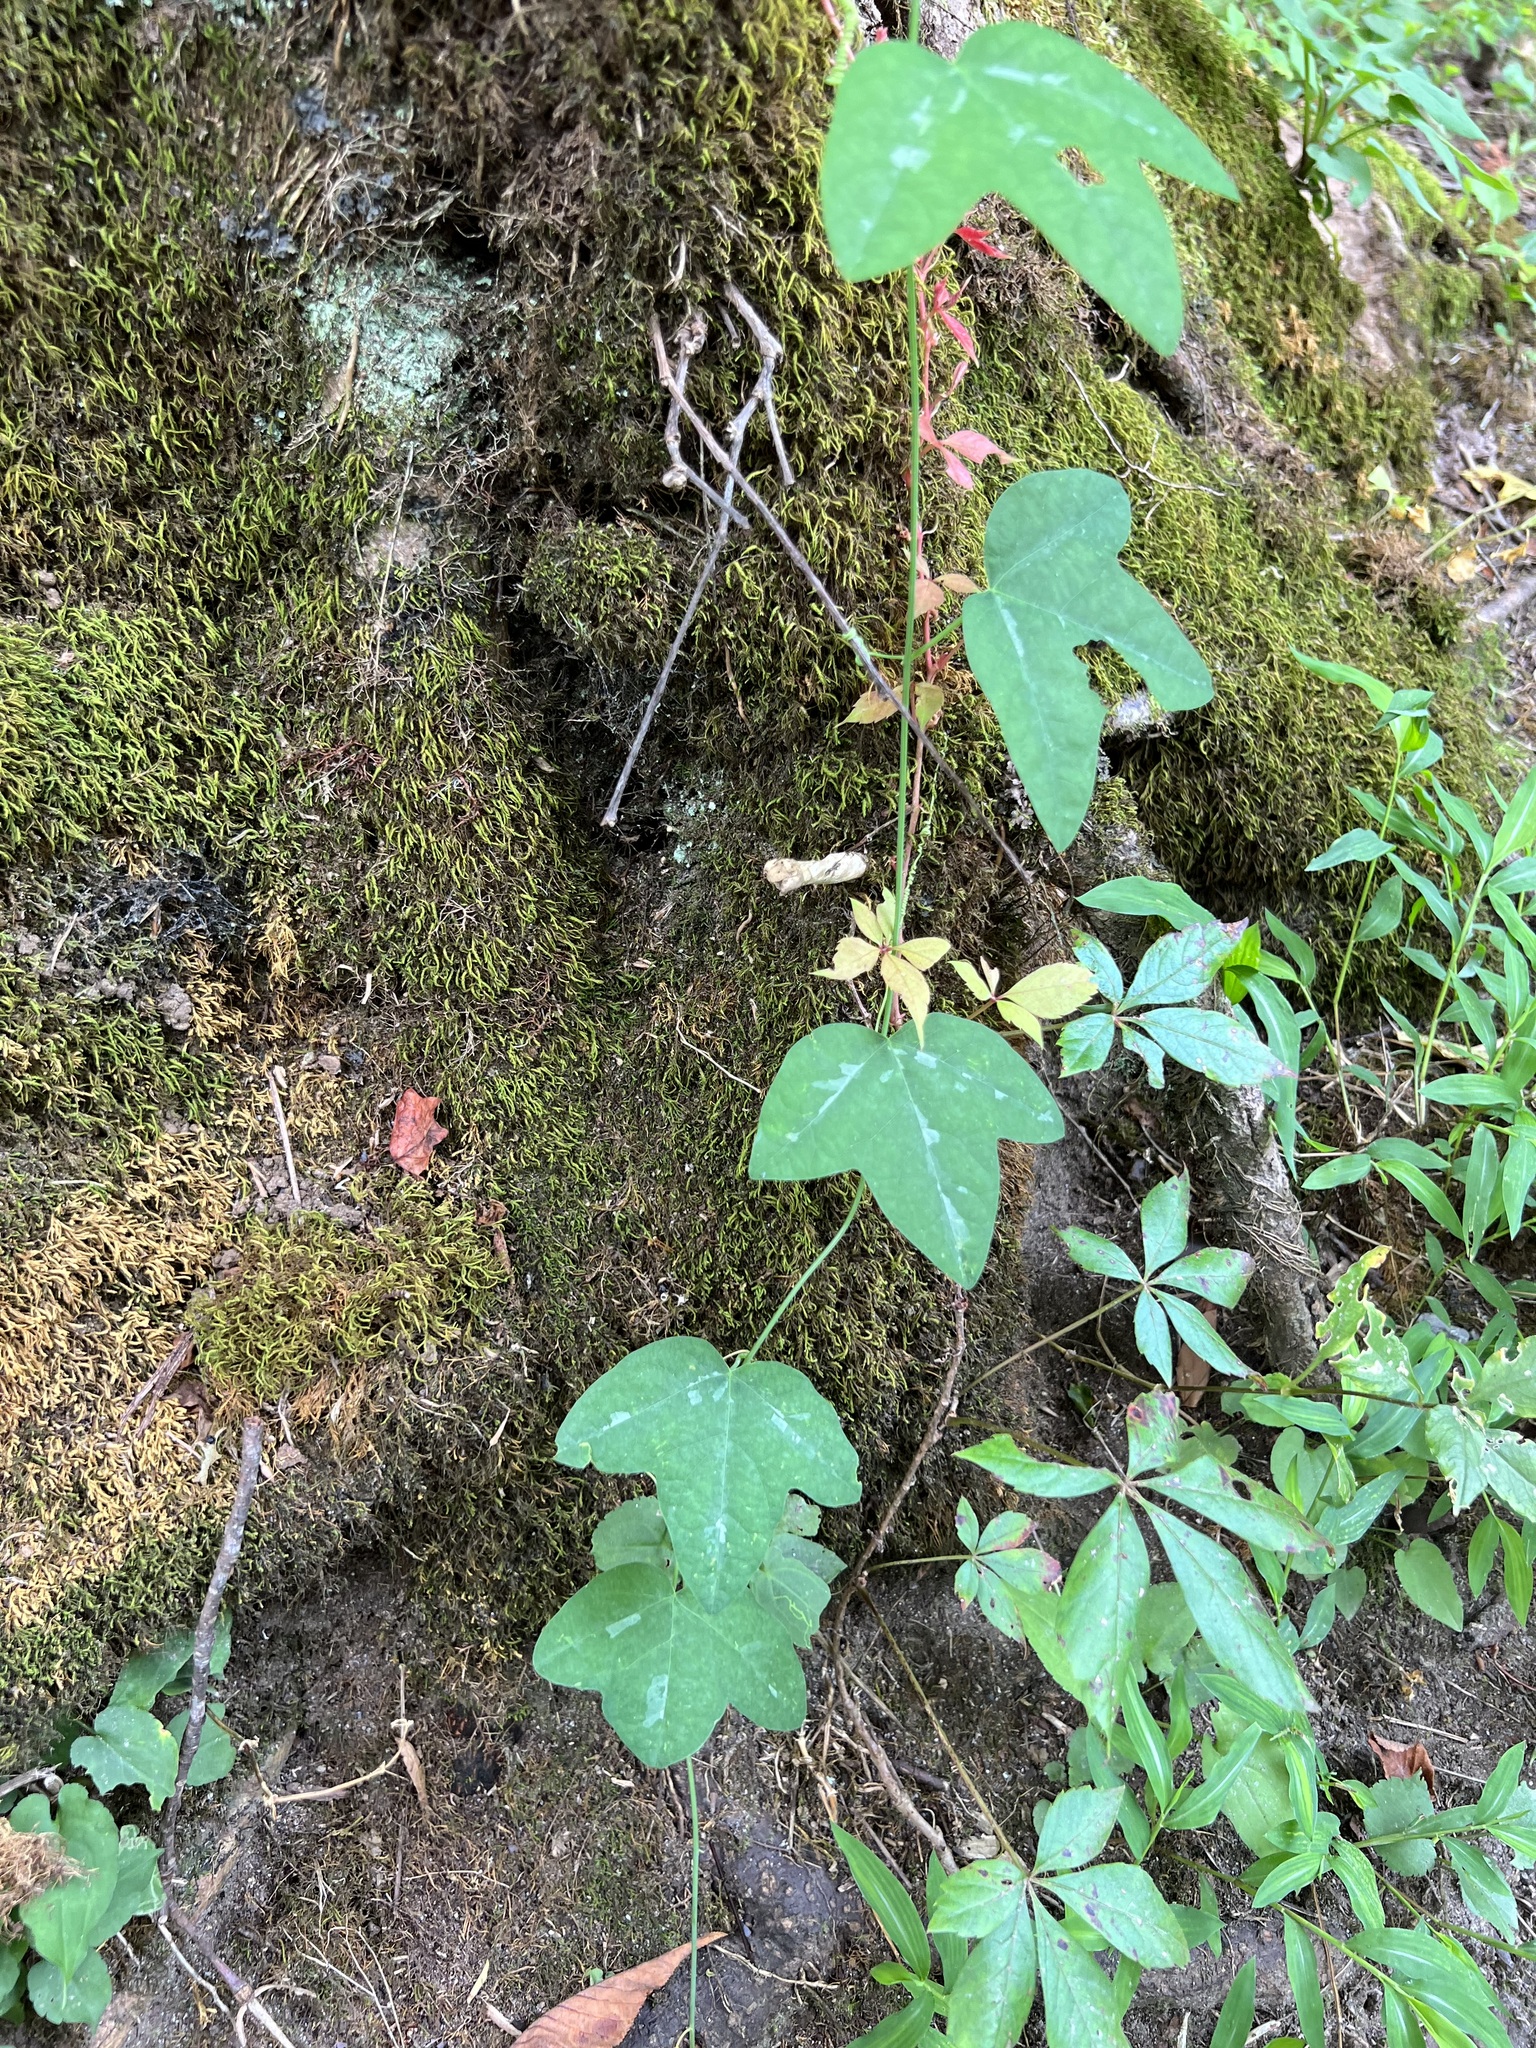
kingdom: Plantae
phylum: Tracheophyta
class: Magnoliopsida
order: Malpighiales
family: Passifloraceae
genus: Passiflora
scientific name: Passiflora lutea
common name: Yellow passionflower
